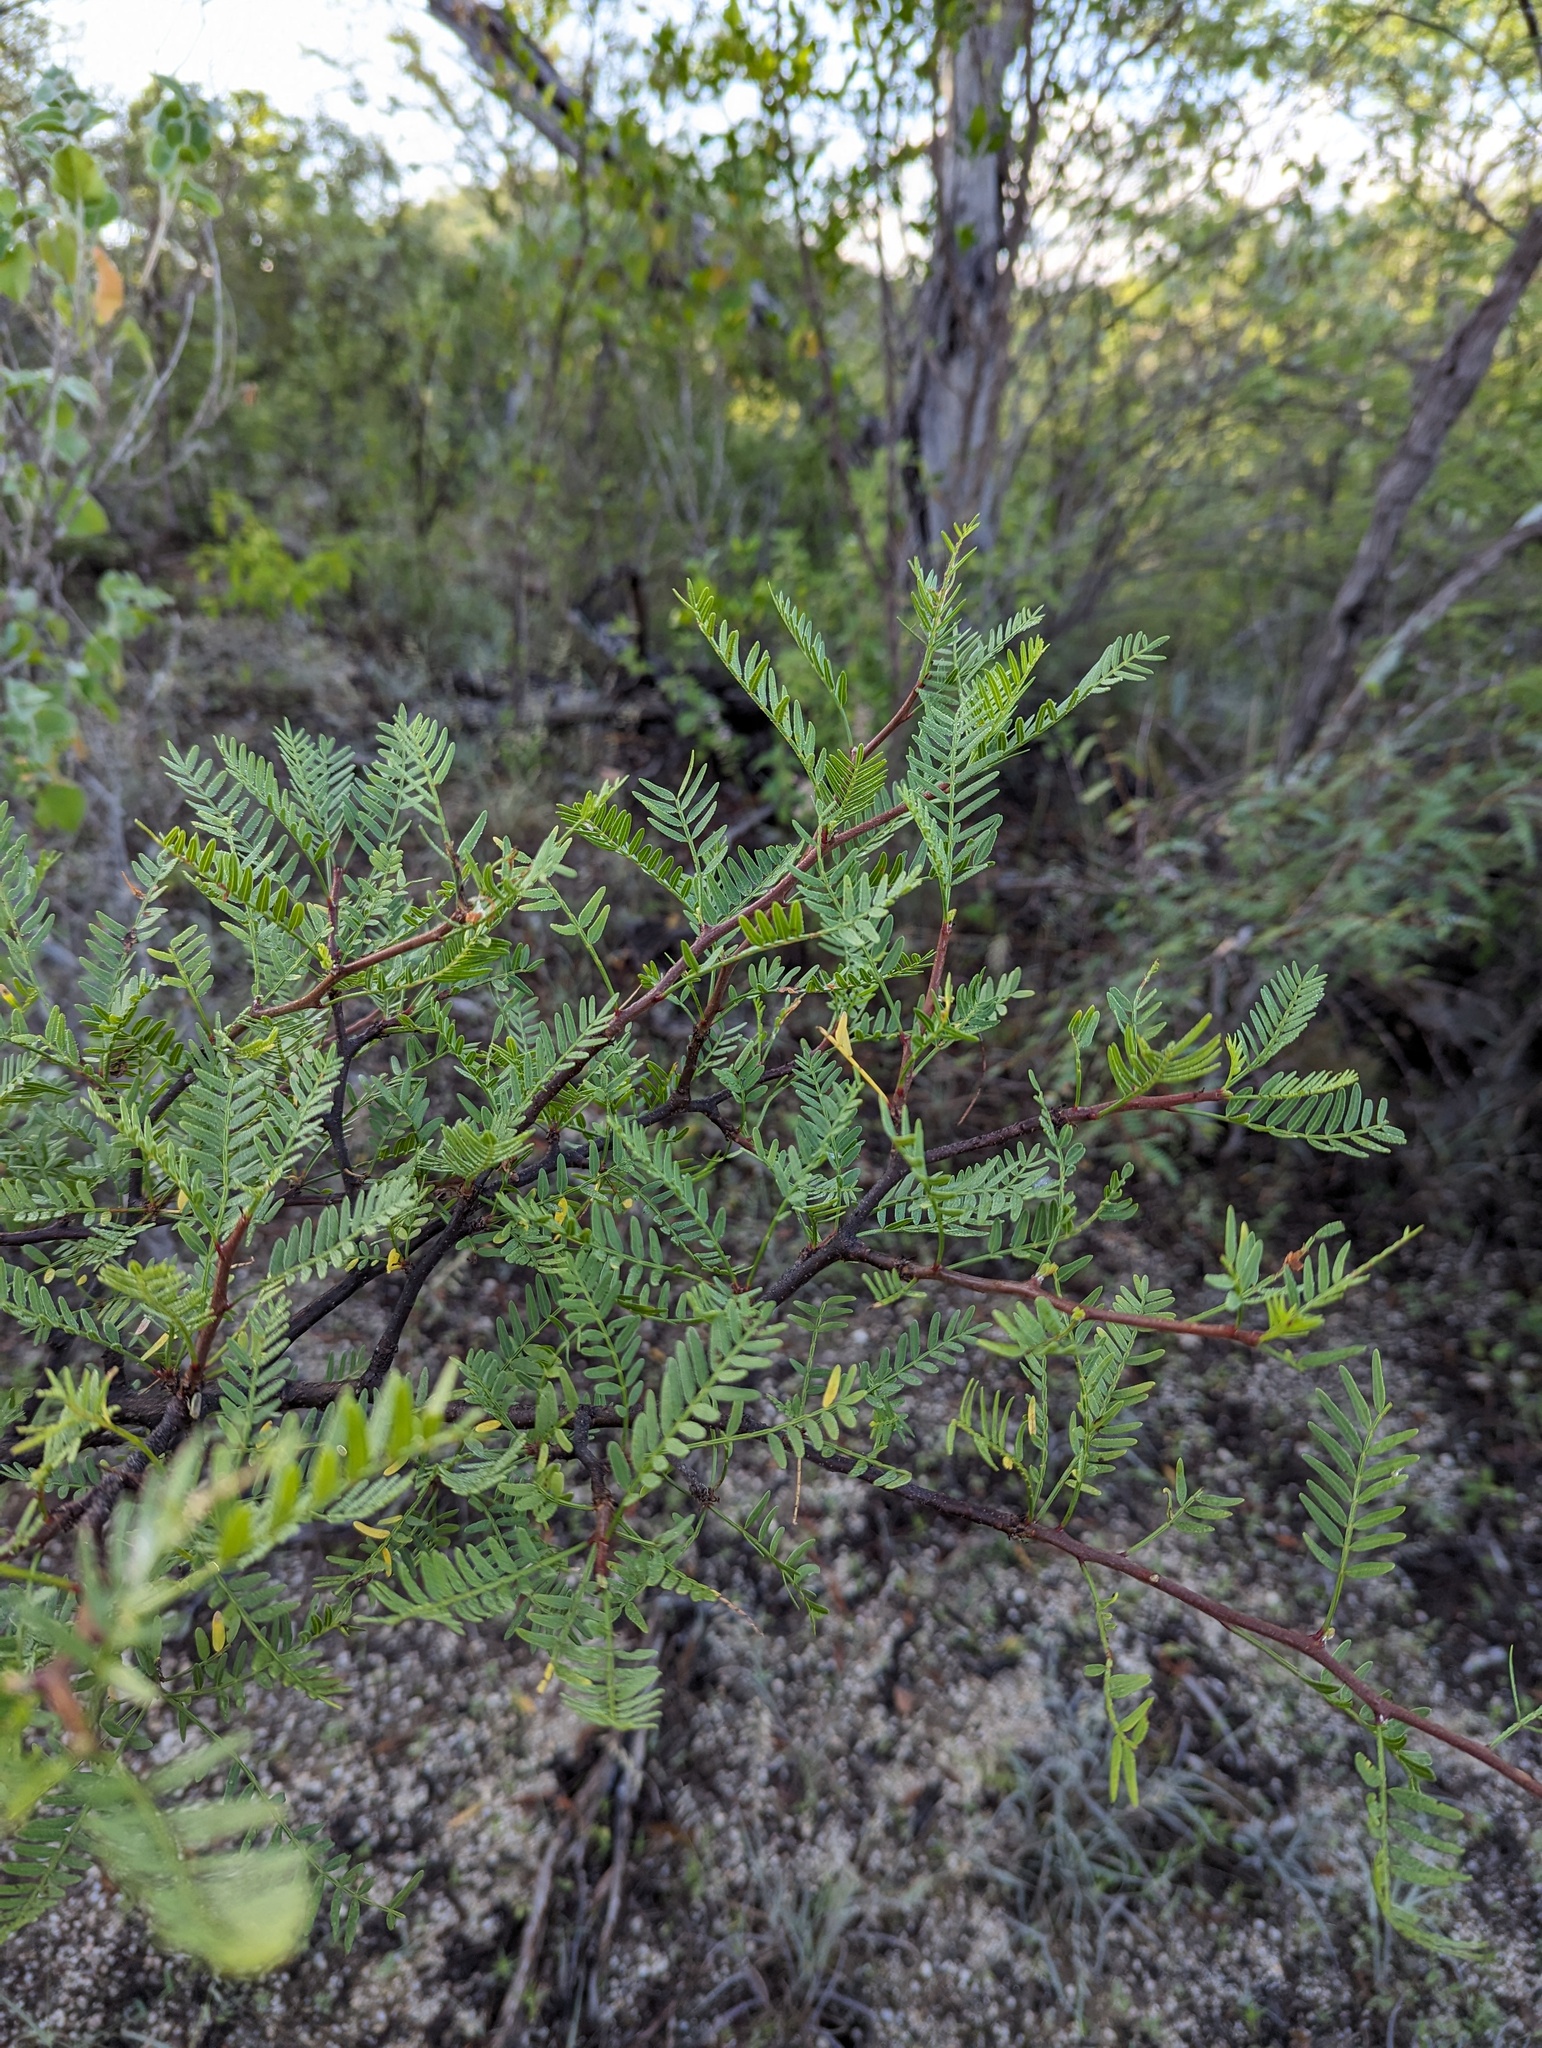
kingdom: Plantae
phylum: Tracheophyta
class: Magnoliopsida
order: Sapindales
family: Burseraceae
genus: Bursera
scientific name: Bursera microphylla
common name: Elephant tree
